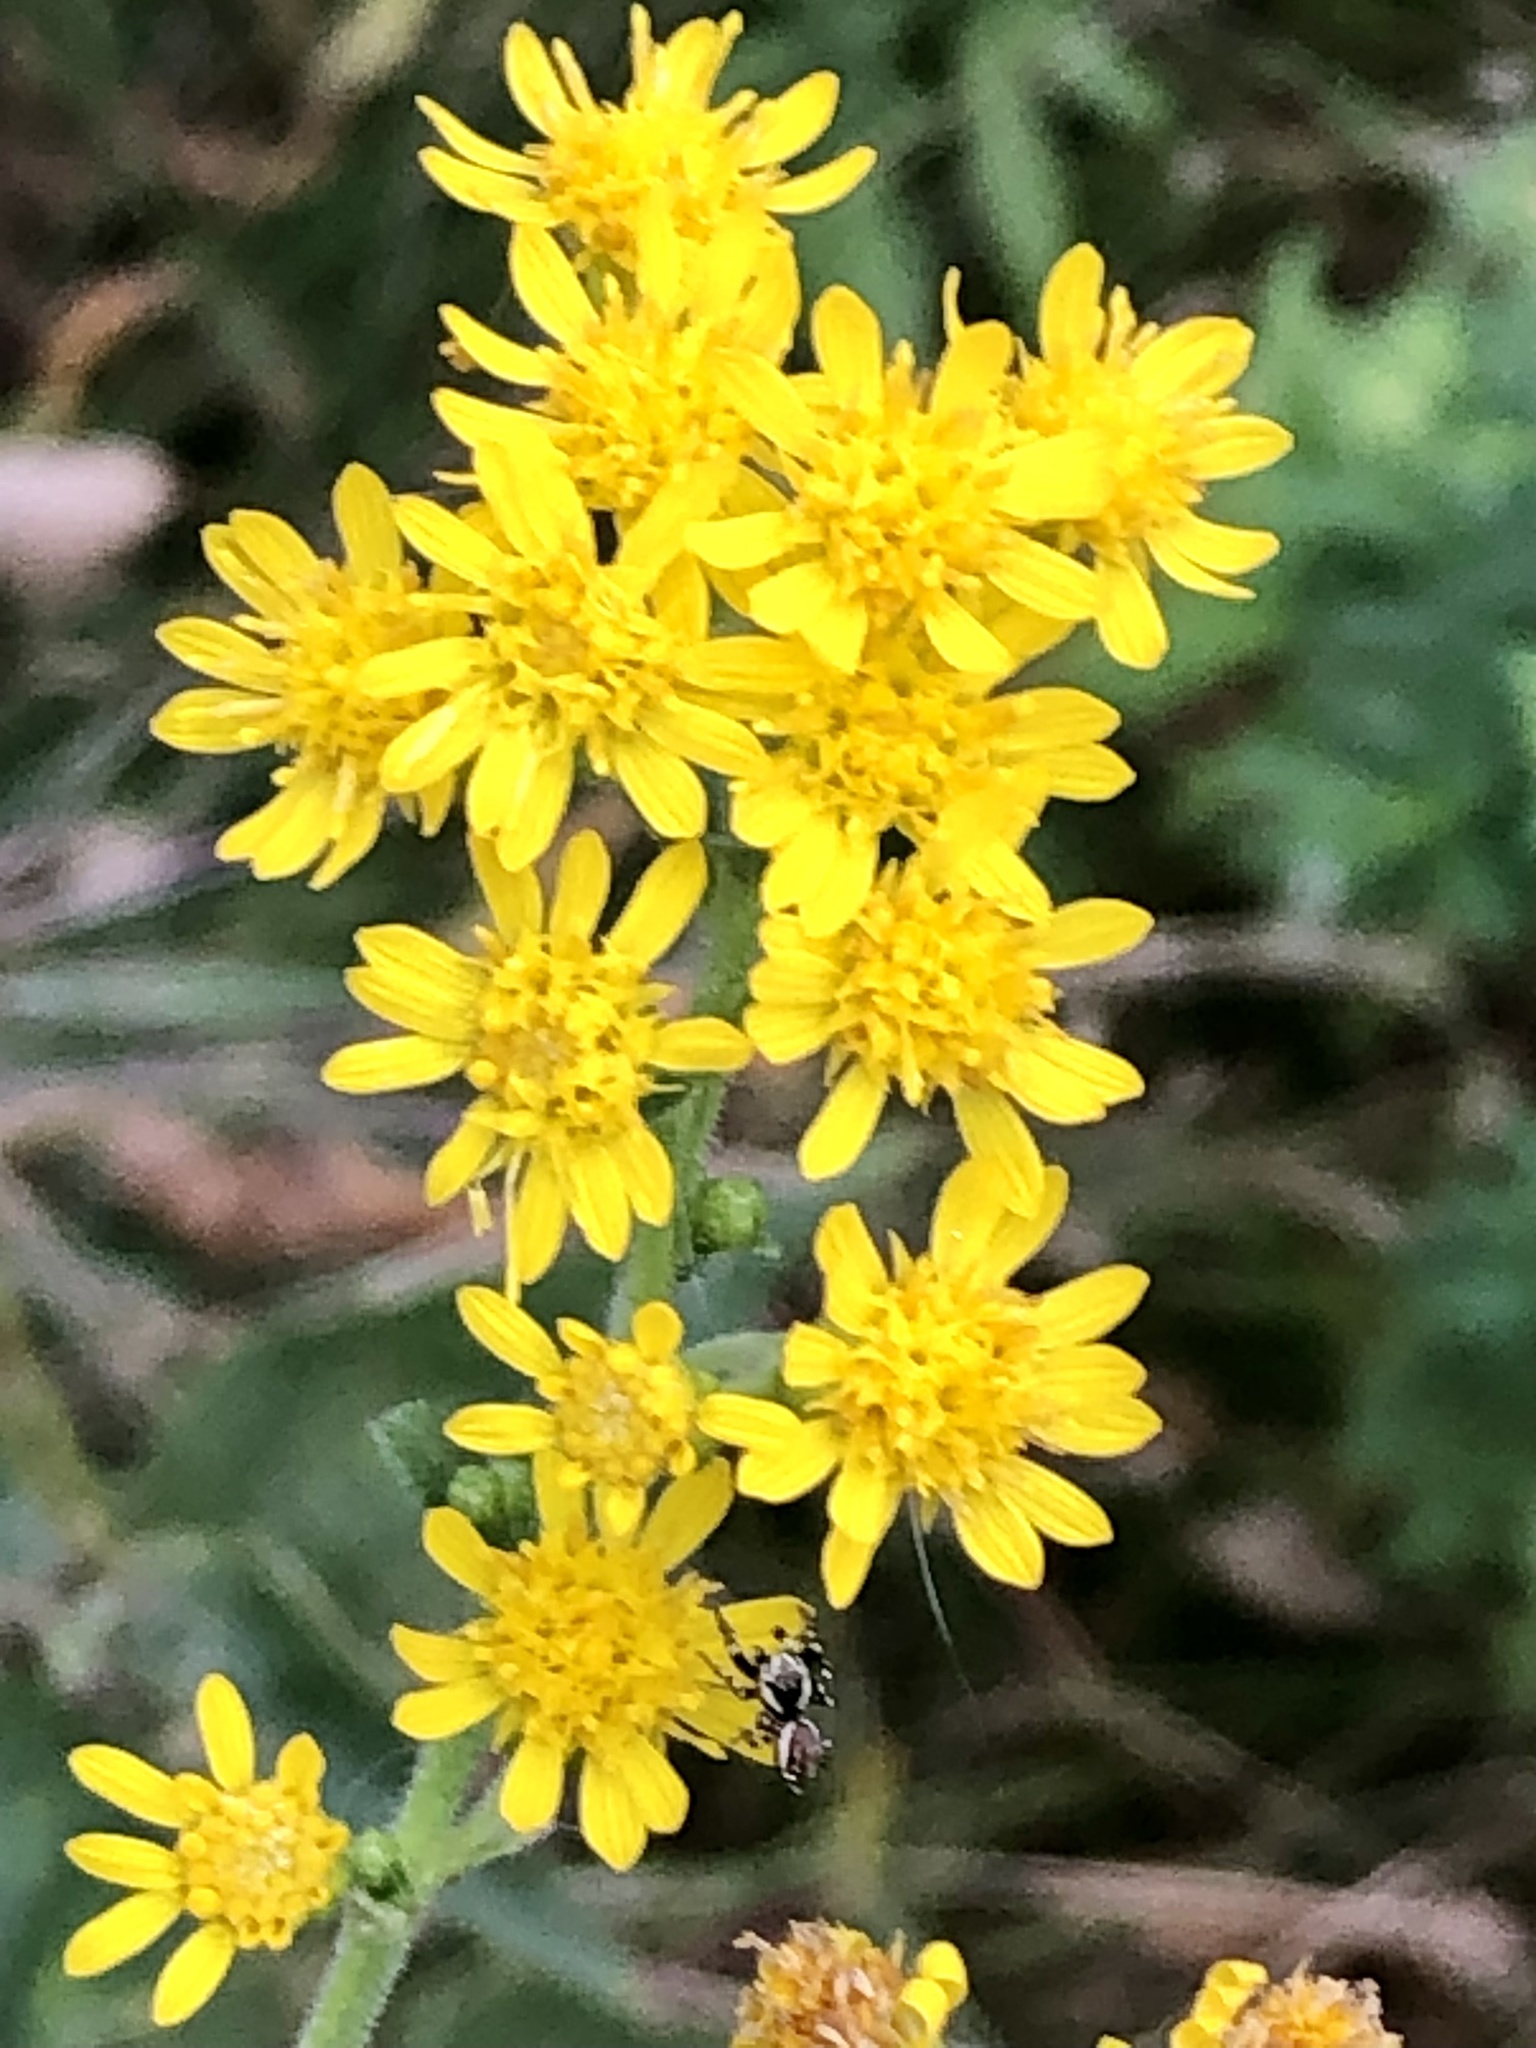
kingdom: Plantae
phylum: Tracheophyta
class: Magnoliopsida
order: Asterales
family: Asteraceae
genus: Solidago
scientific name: Solidago rigida
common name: Rigid goldenrod
